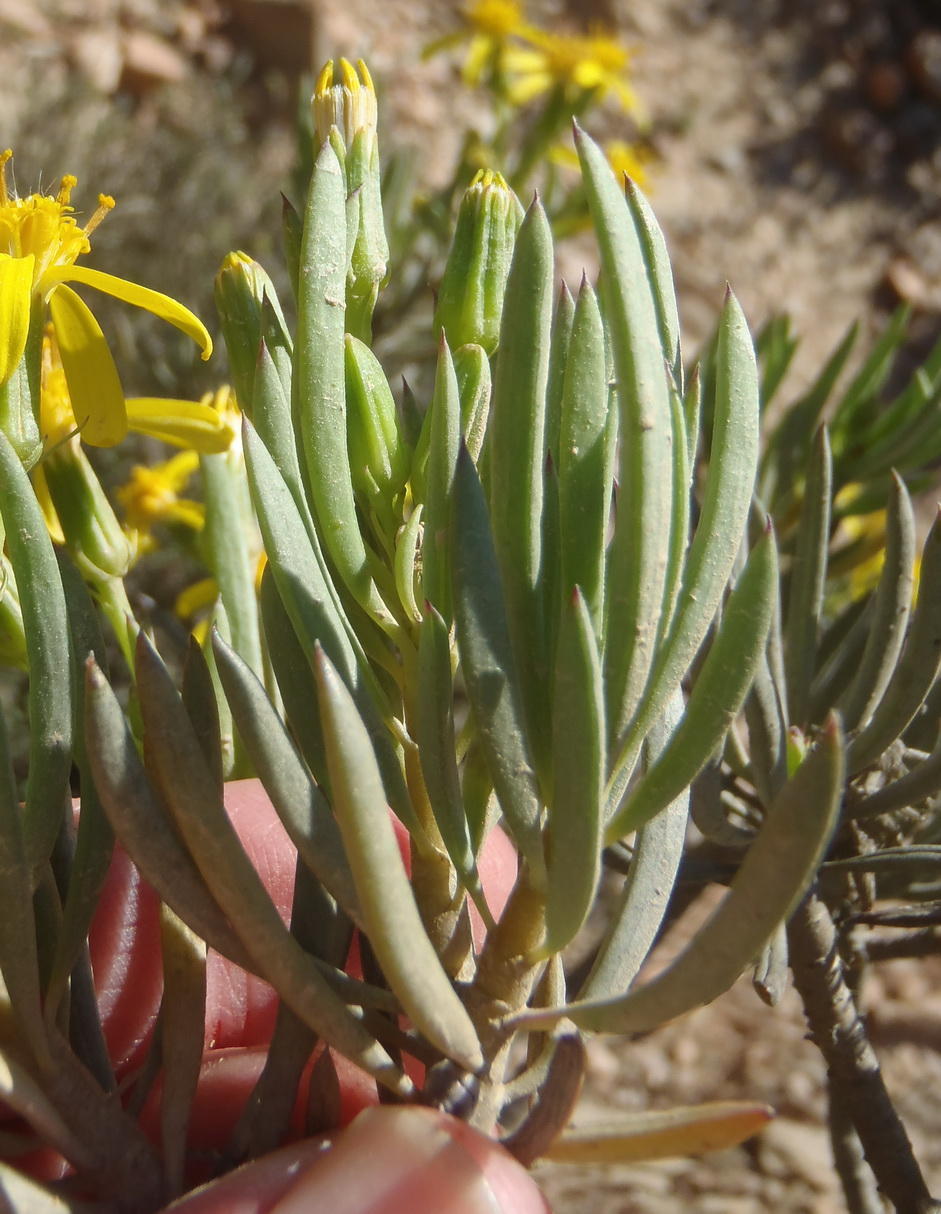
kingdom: Plantae
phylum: Tracheophyta
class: Magnoliopsida
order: Asterales
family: Asteraceae
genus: Senecio
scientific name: Senecio cotyledonis
